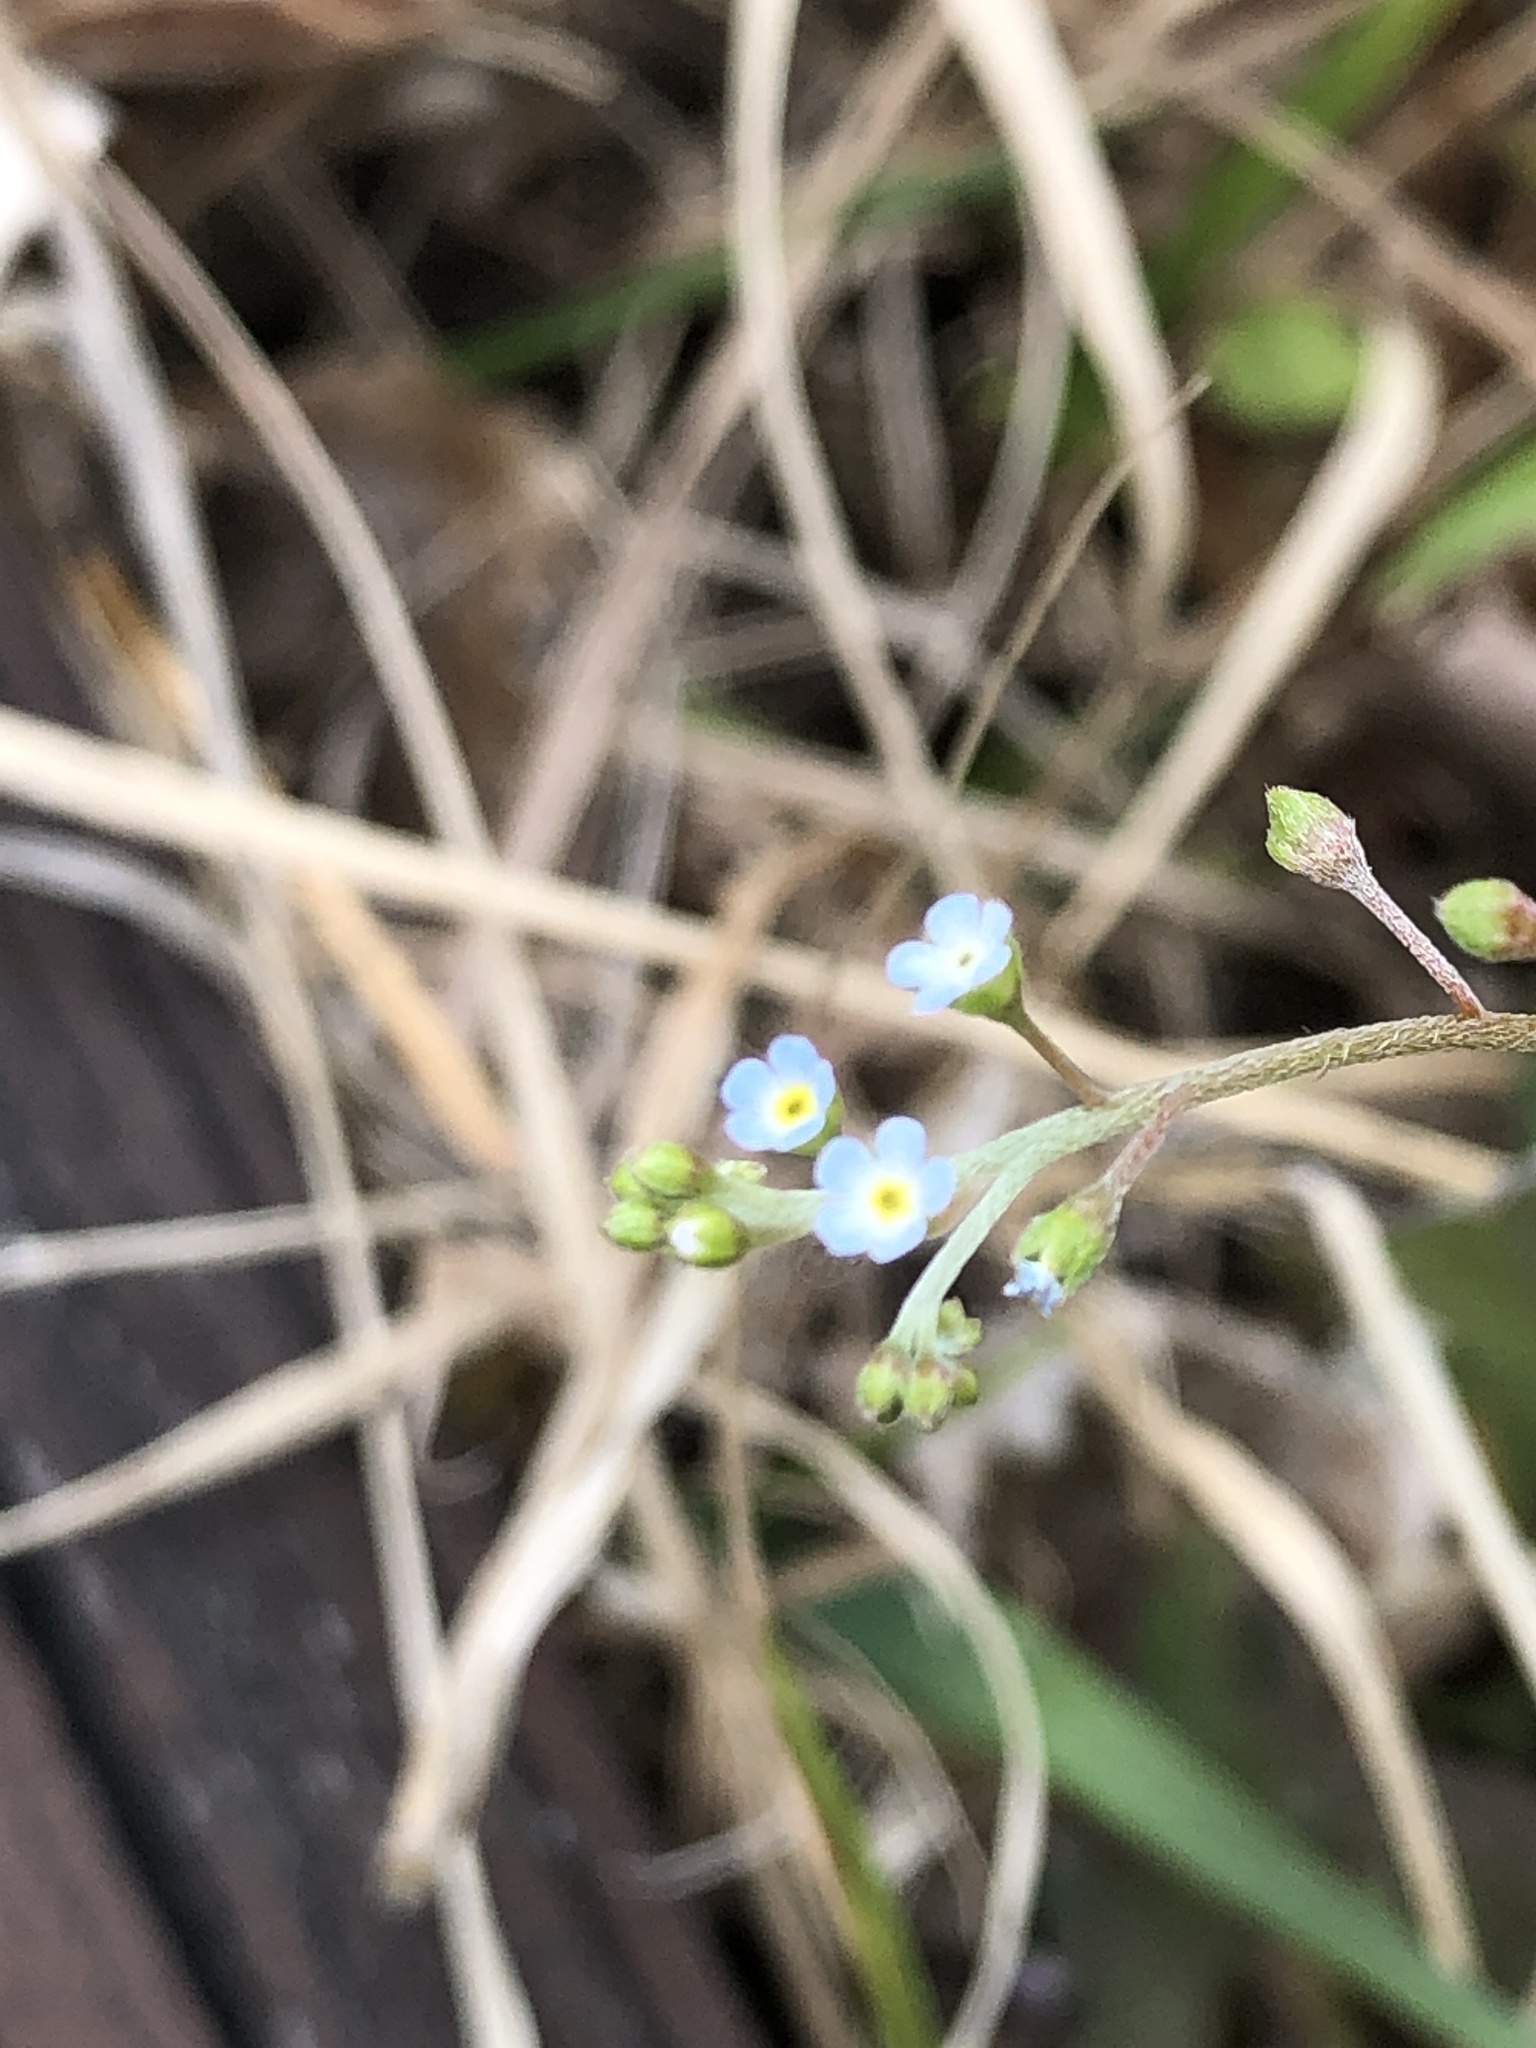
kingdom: Plantae
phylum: Tracheophyta
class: Magnoliopsida
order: Boraginales
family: Boraginaceae
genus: Trigonotis
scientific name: Trigonotis peduncularis
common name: Cucumber herb
